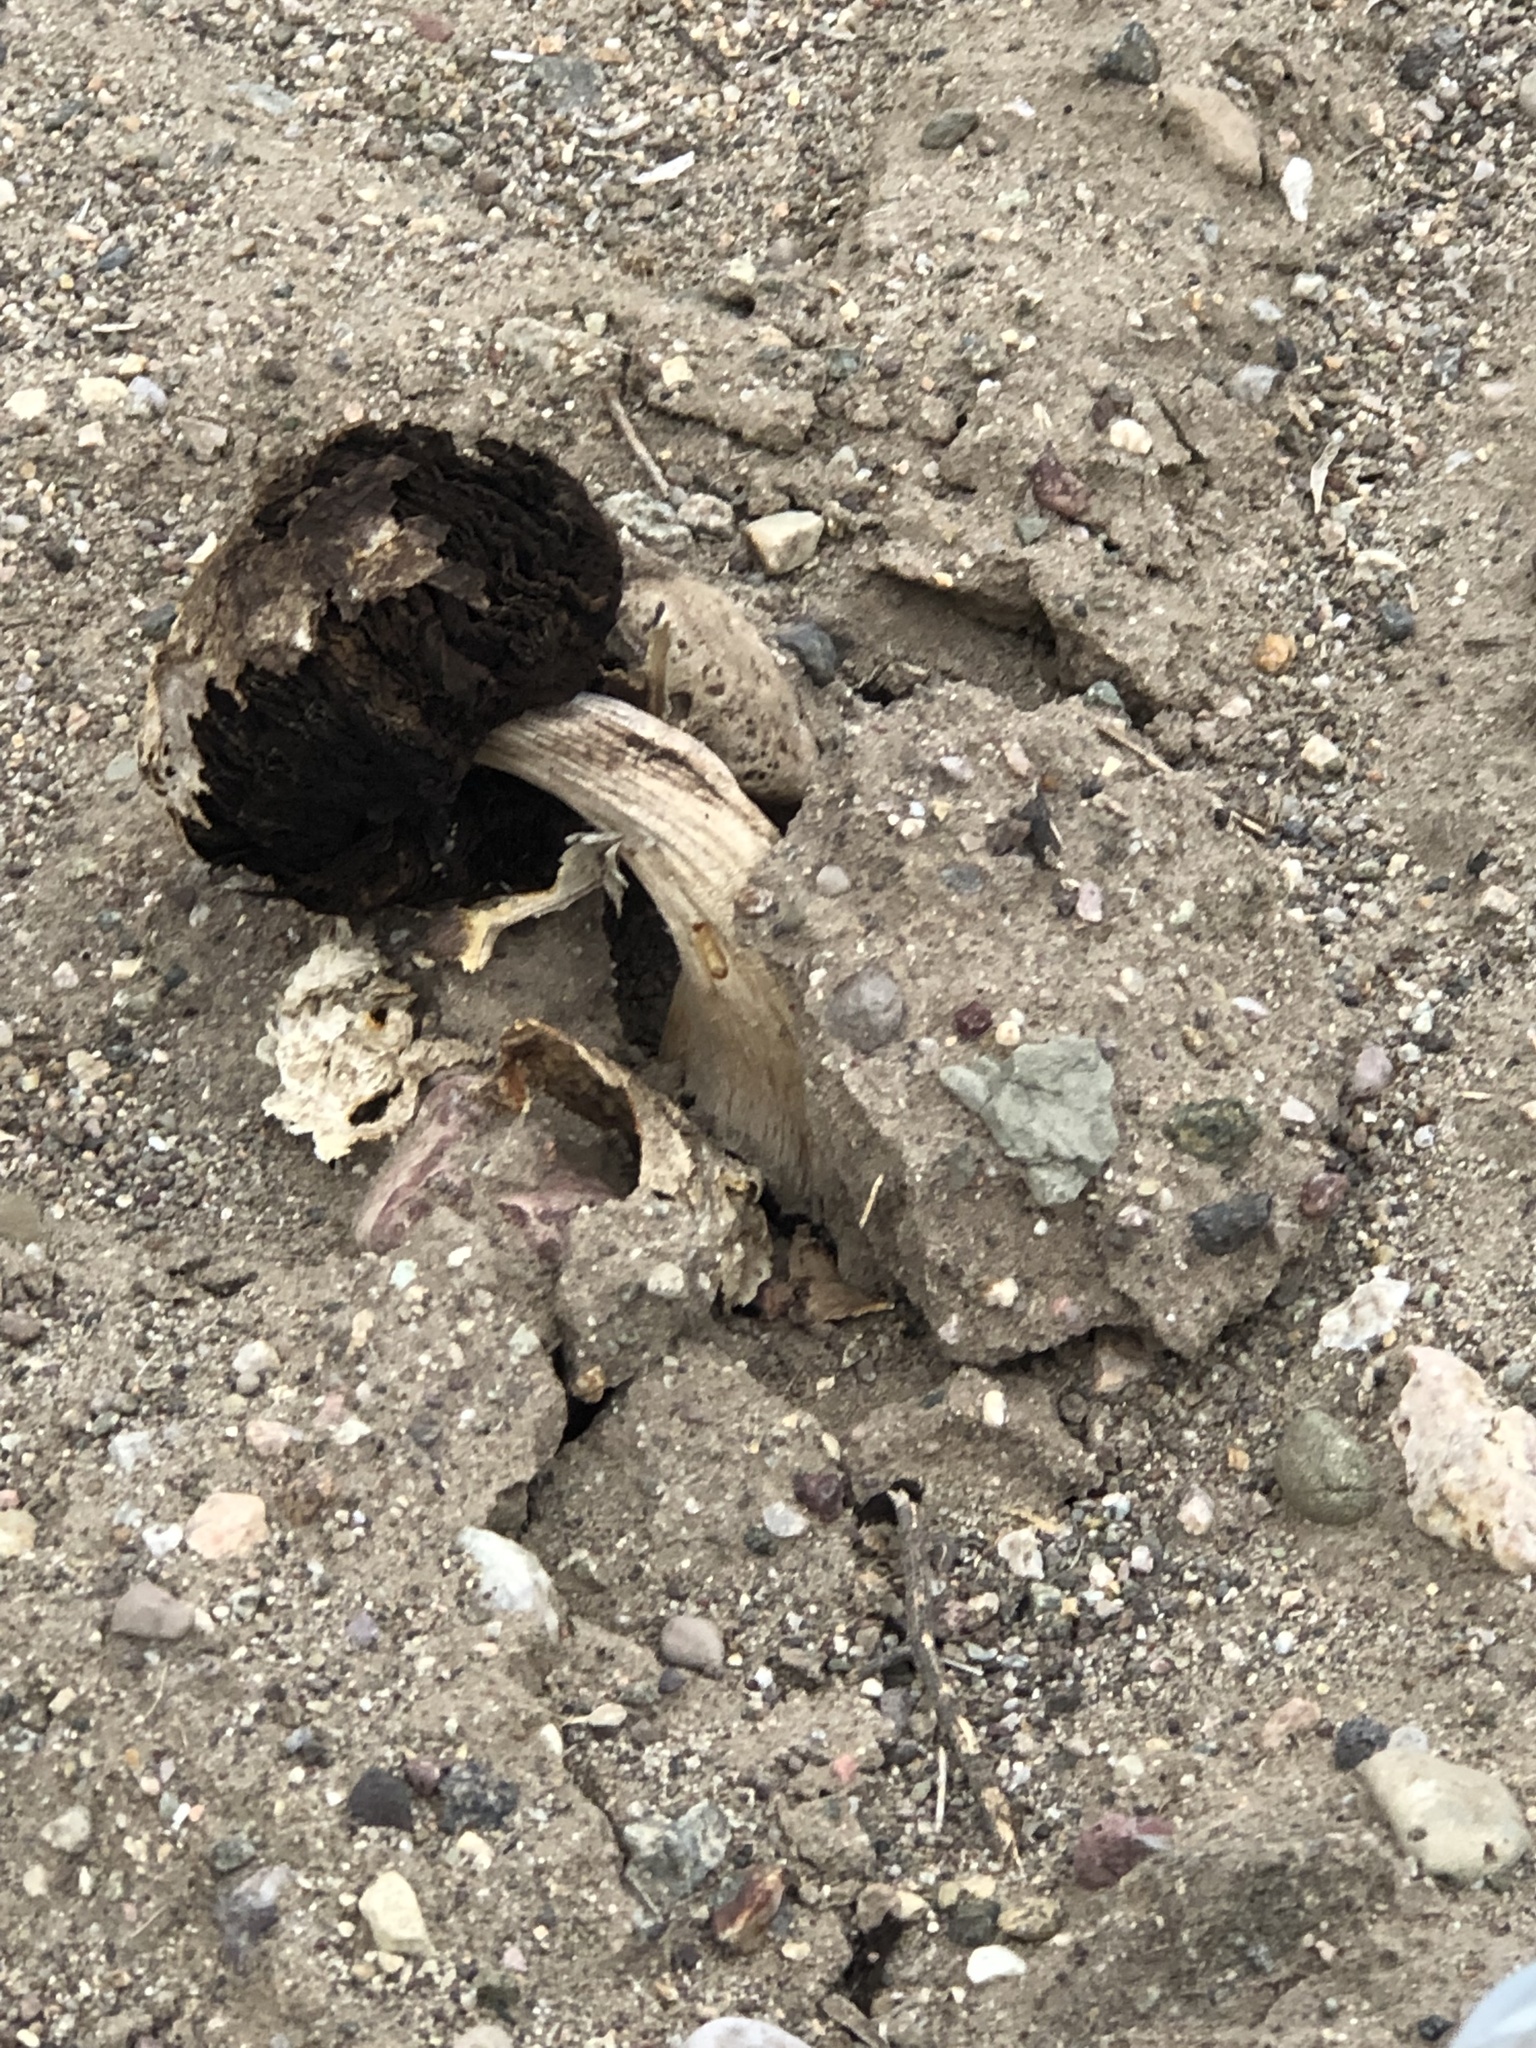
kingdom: Fungi
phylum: Basidiomycota
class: Agaricomycetes
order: Agaricales
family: Agaricaceae
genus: Agaricus
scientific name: Agaricus deserticola
